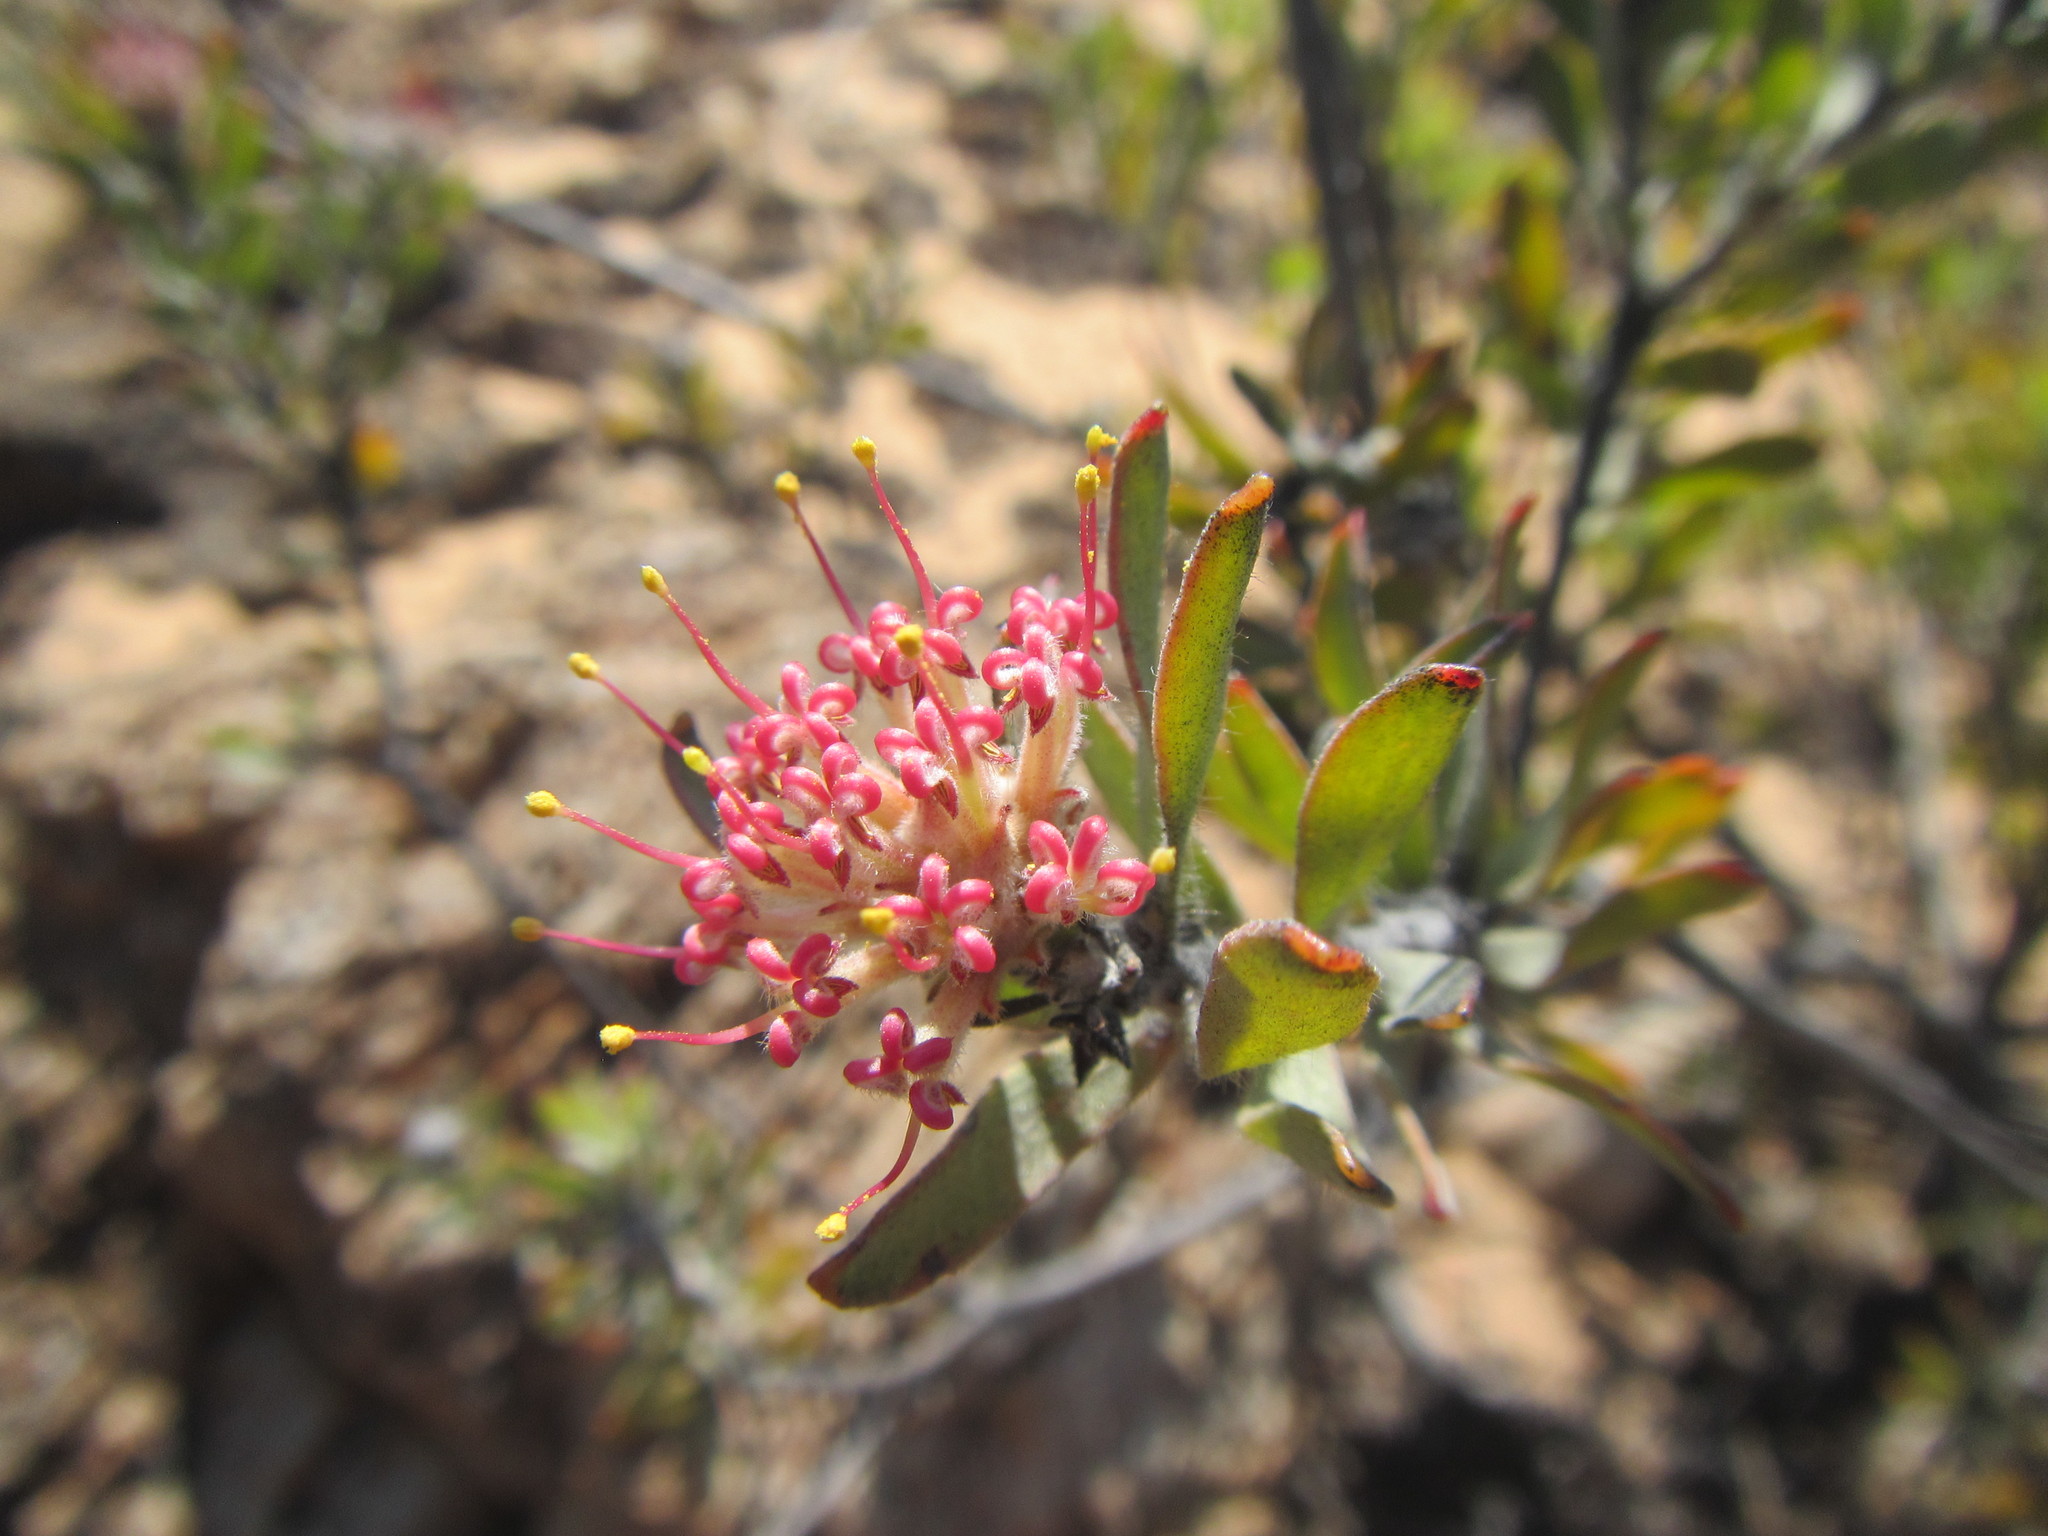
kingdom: Plantae
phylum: Tracheophyta
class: Magnoliopsida
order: Proteales
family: Proteaceae
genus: Leucospermum
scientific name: Leucospermum wittebergense
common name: Swartberg pincushion
